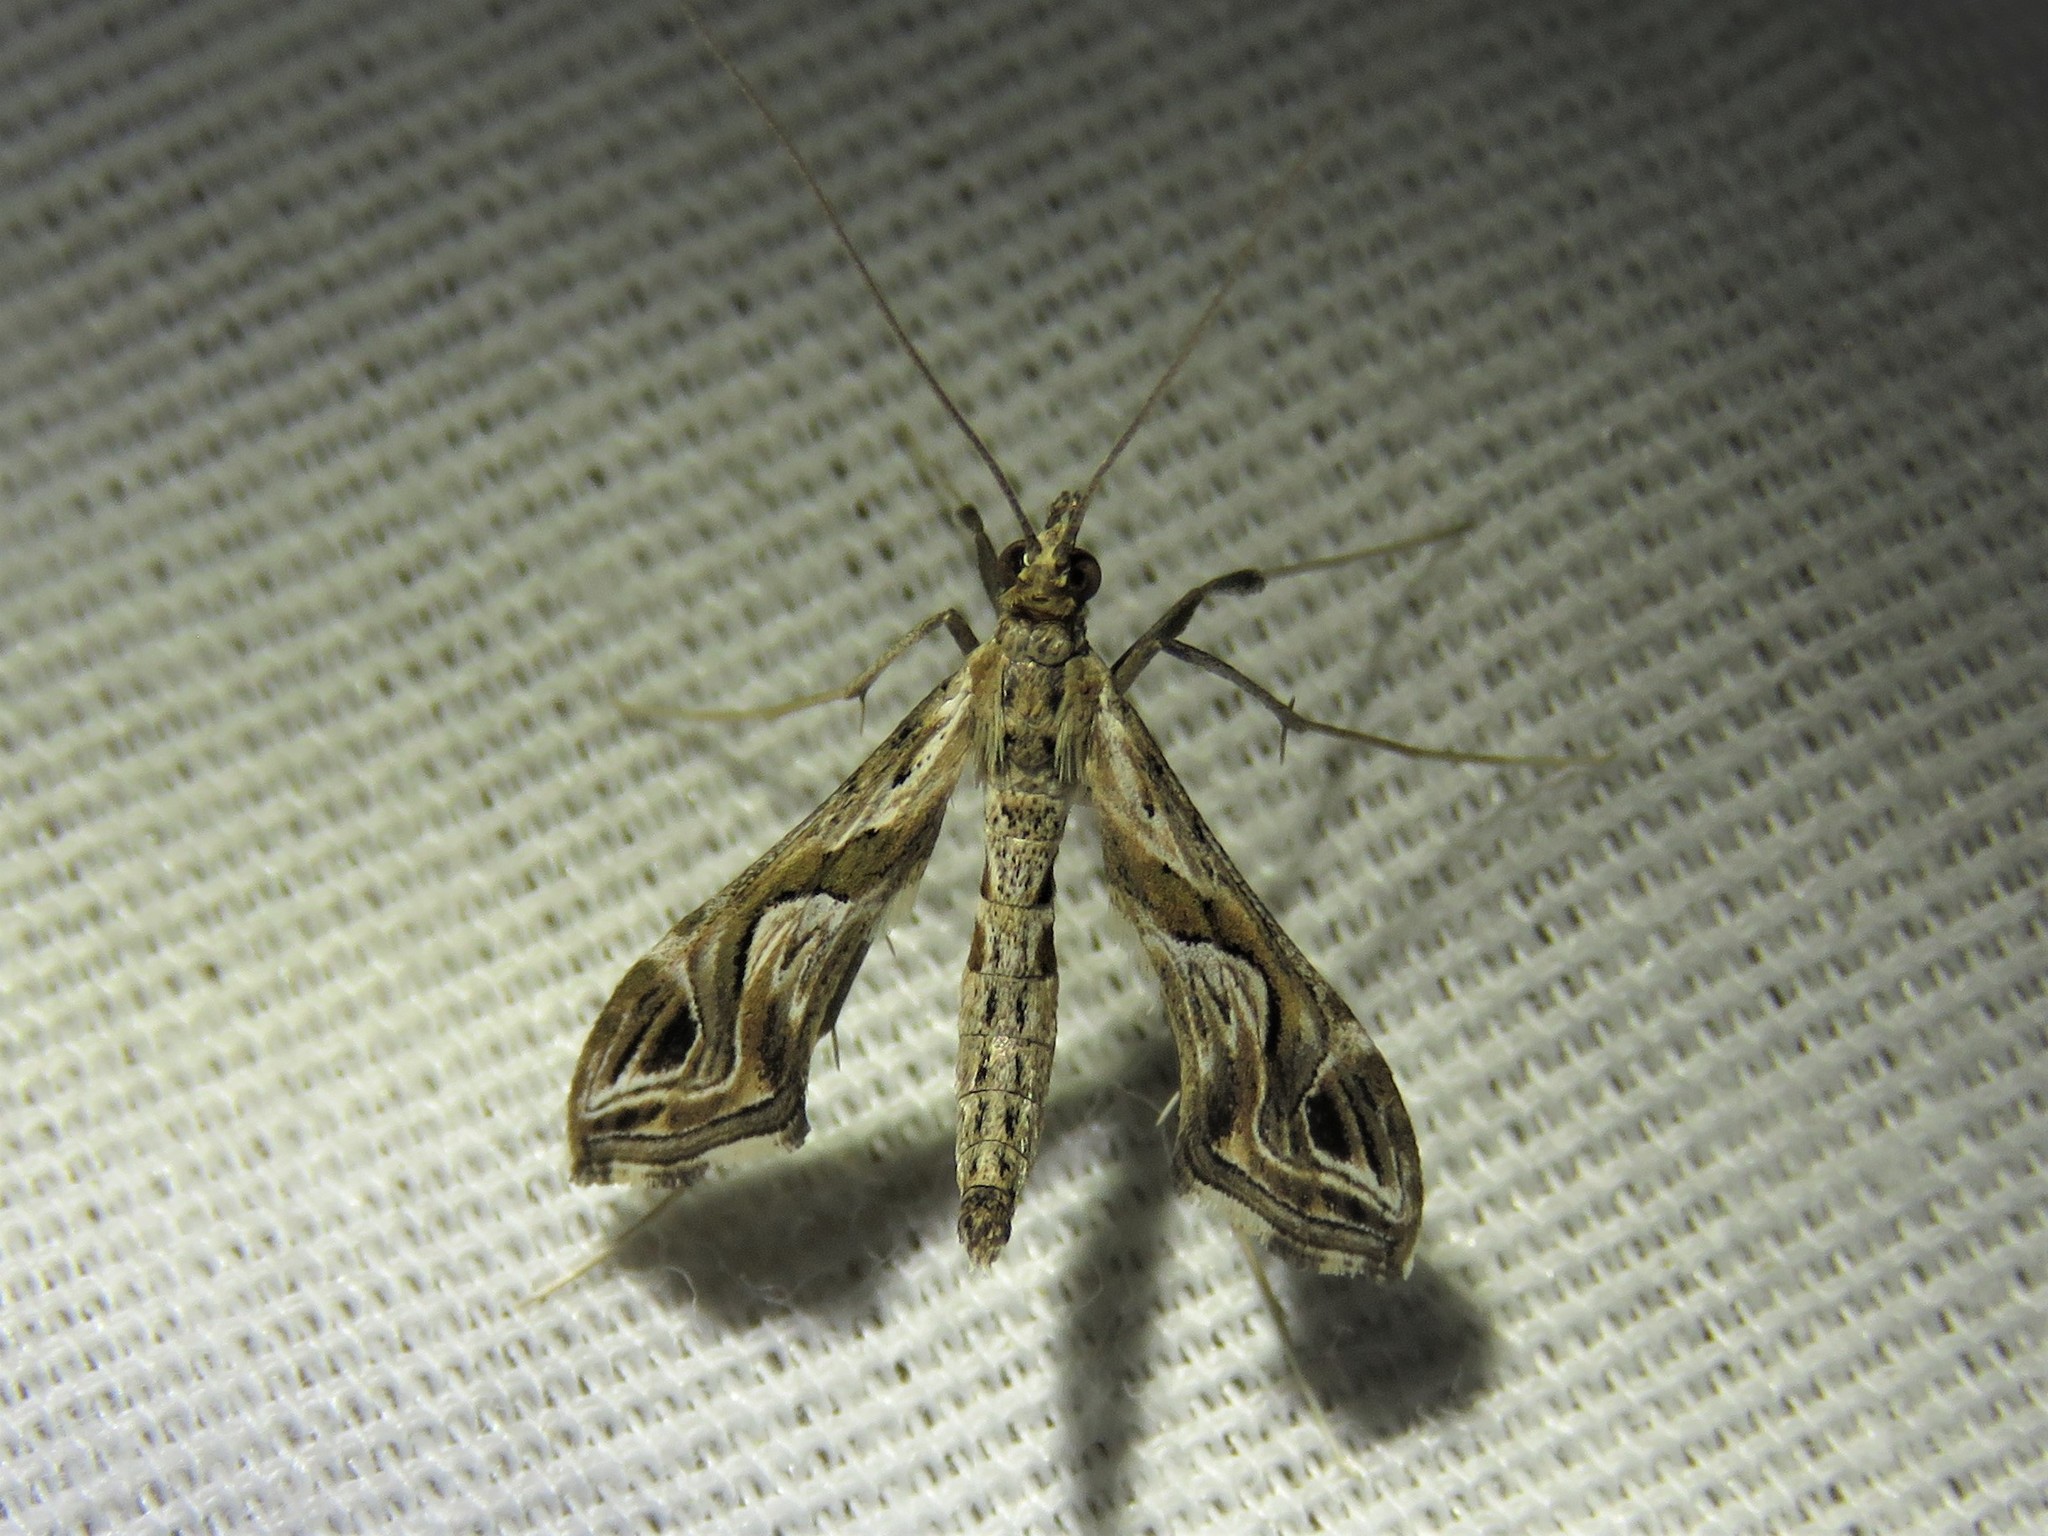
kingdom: Animalia
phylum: Arthropoda
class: Insecta
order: Lepidoptera
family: Crambidae
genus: Lineodes
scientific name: Lineodes integra
